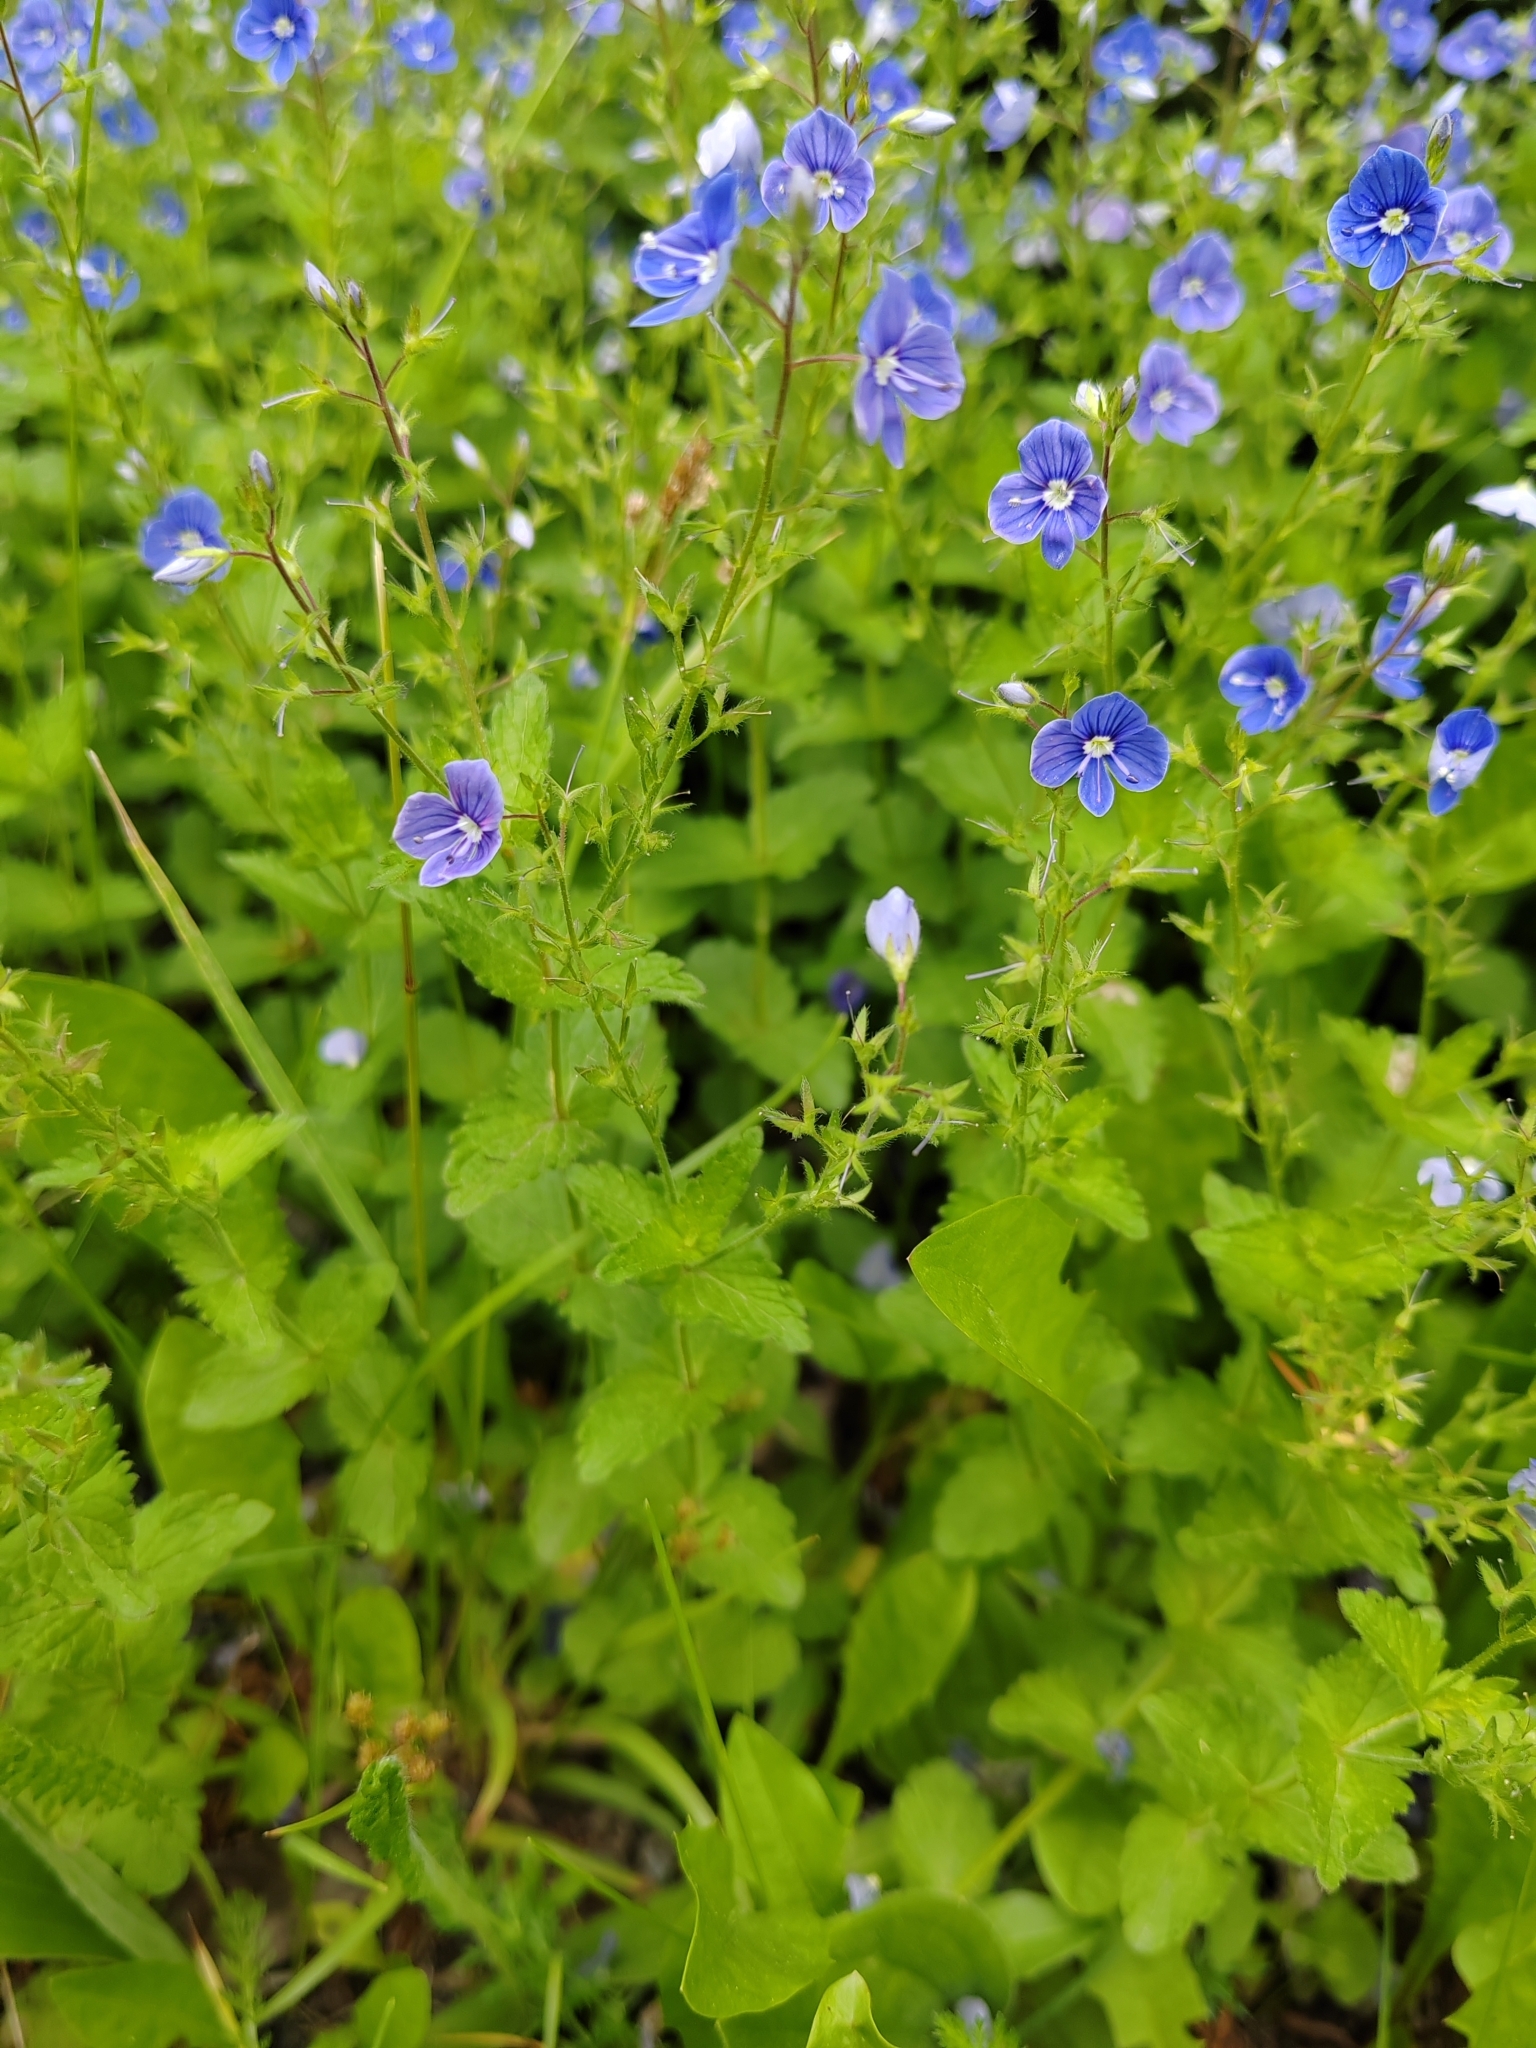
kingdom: Plantae
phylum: Tracheophyta
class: Magnoliopsida
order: Lamiales
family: Plantaginaceae
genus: Veronica
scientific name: Veronica chamaedrys
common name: Germander speedwell
